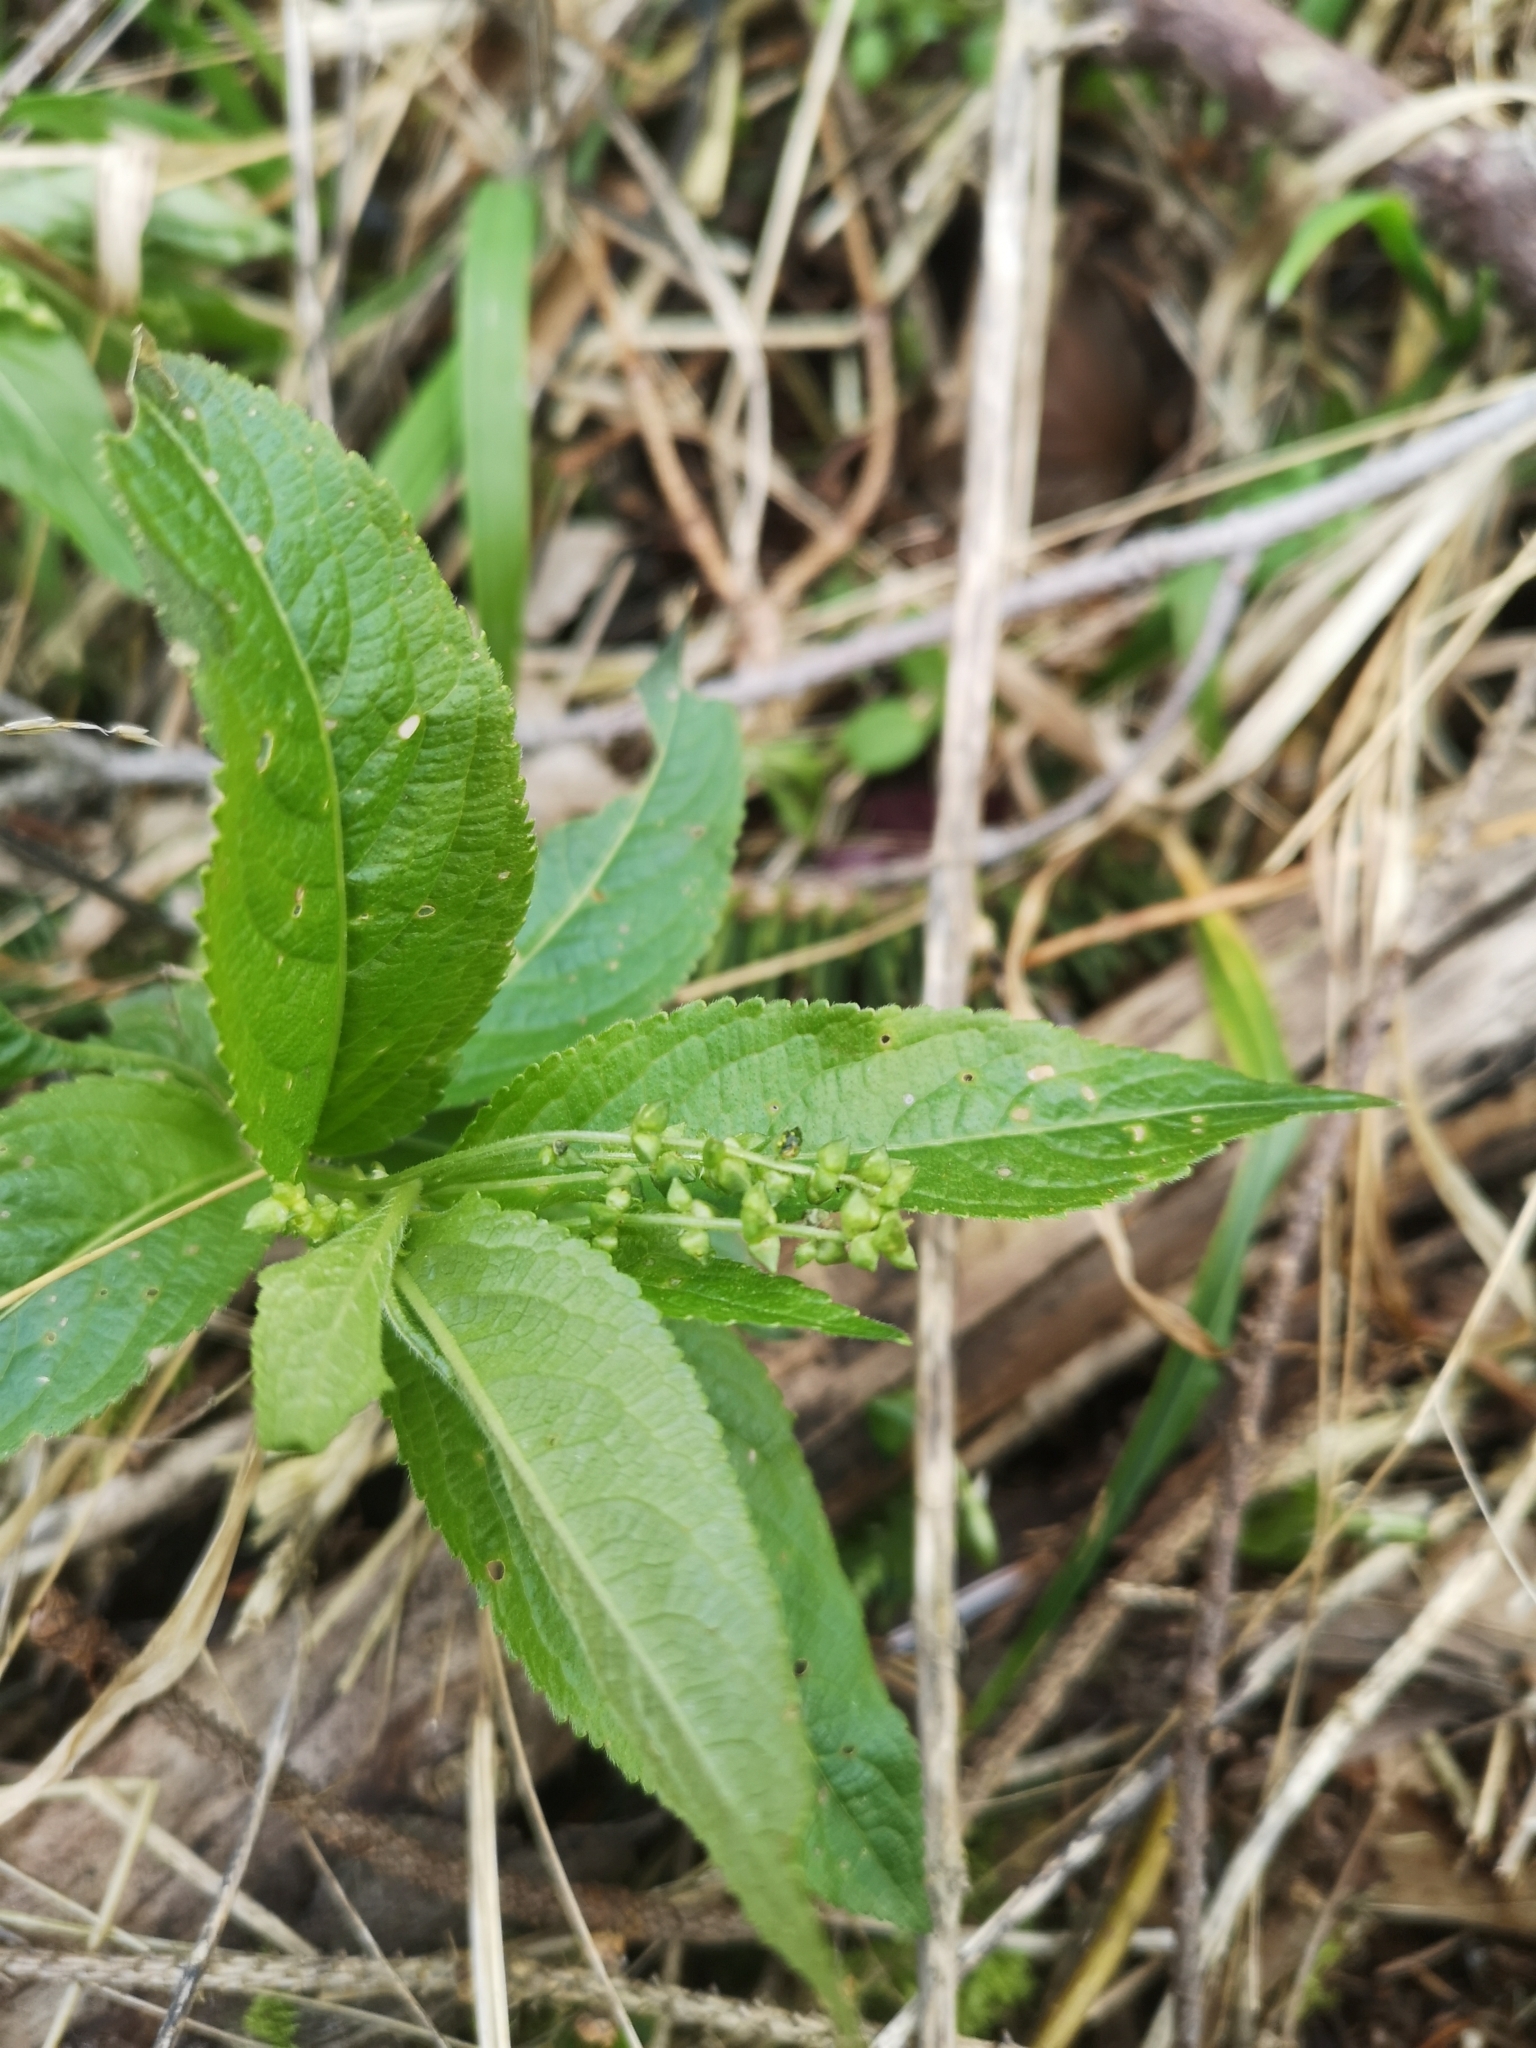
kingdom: Plantae
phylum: Tracheophyta
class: Magnoliopsida
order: Malpighiales
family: Euphorbiaceae
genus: Mercurialis
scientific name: Mercurialis perennis
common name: Dog mercury
